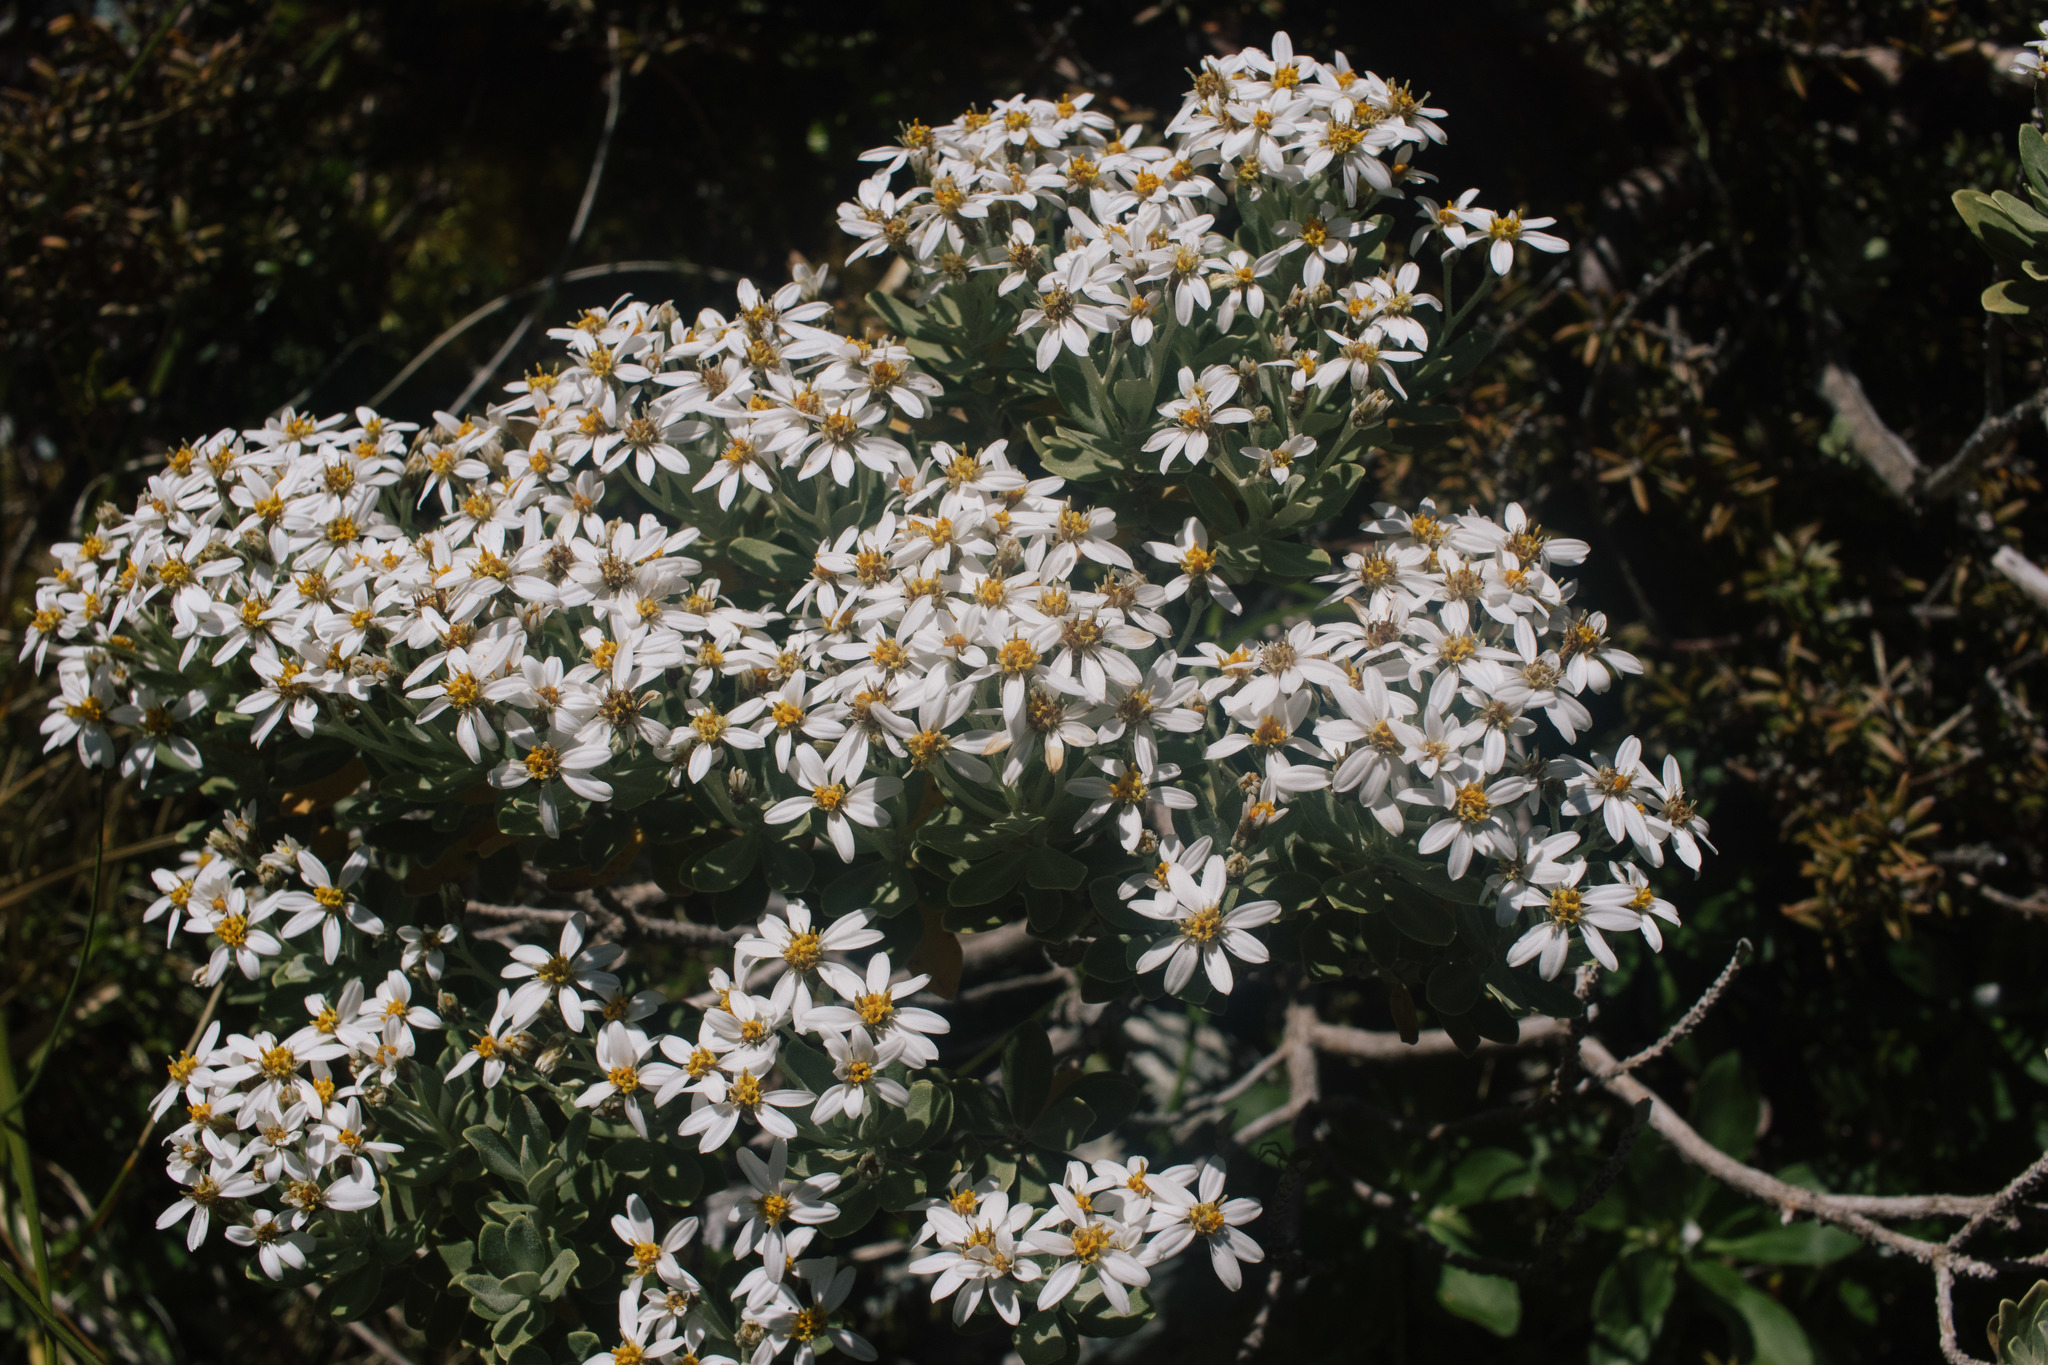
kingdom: Plantae
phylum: Tracheophyta
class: Magnoliopsida
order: Asterales
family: Asteraceae
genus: Olearia
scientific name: Olearia moschata
